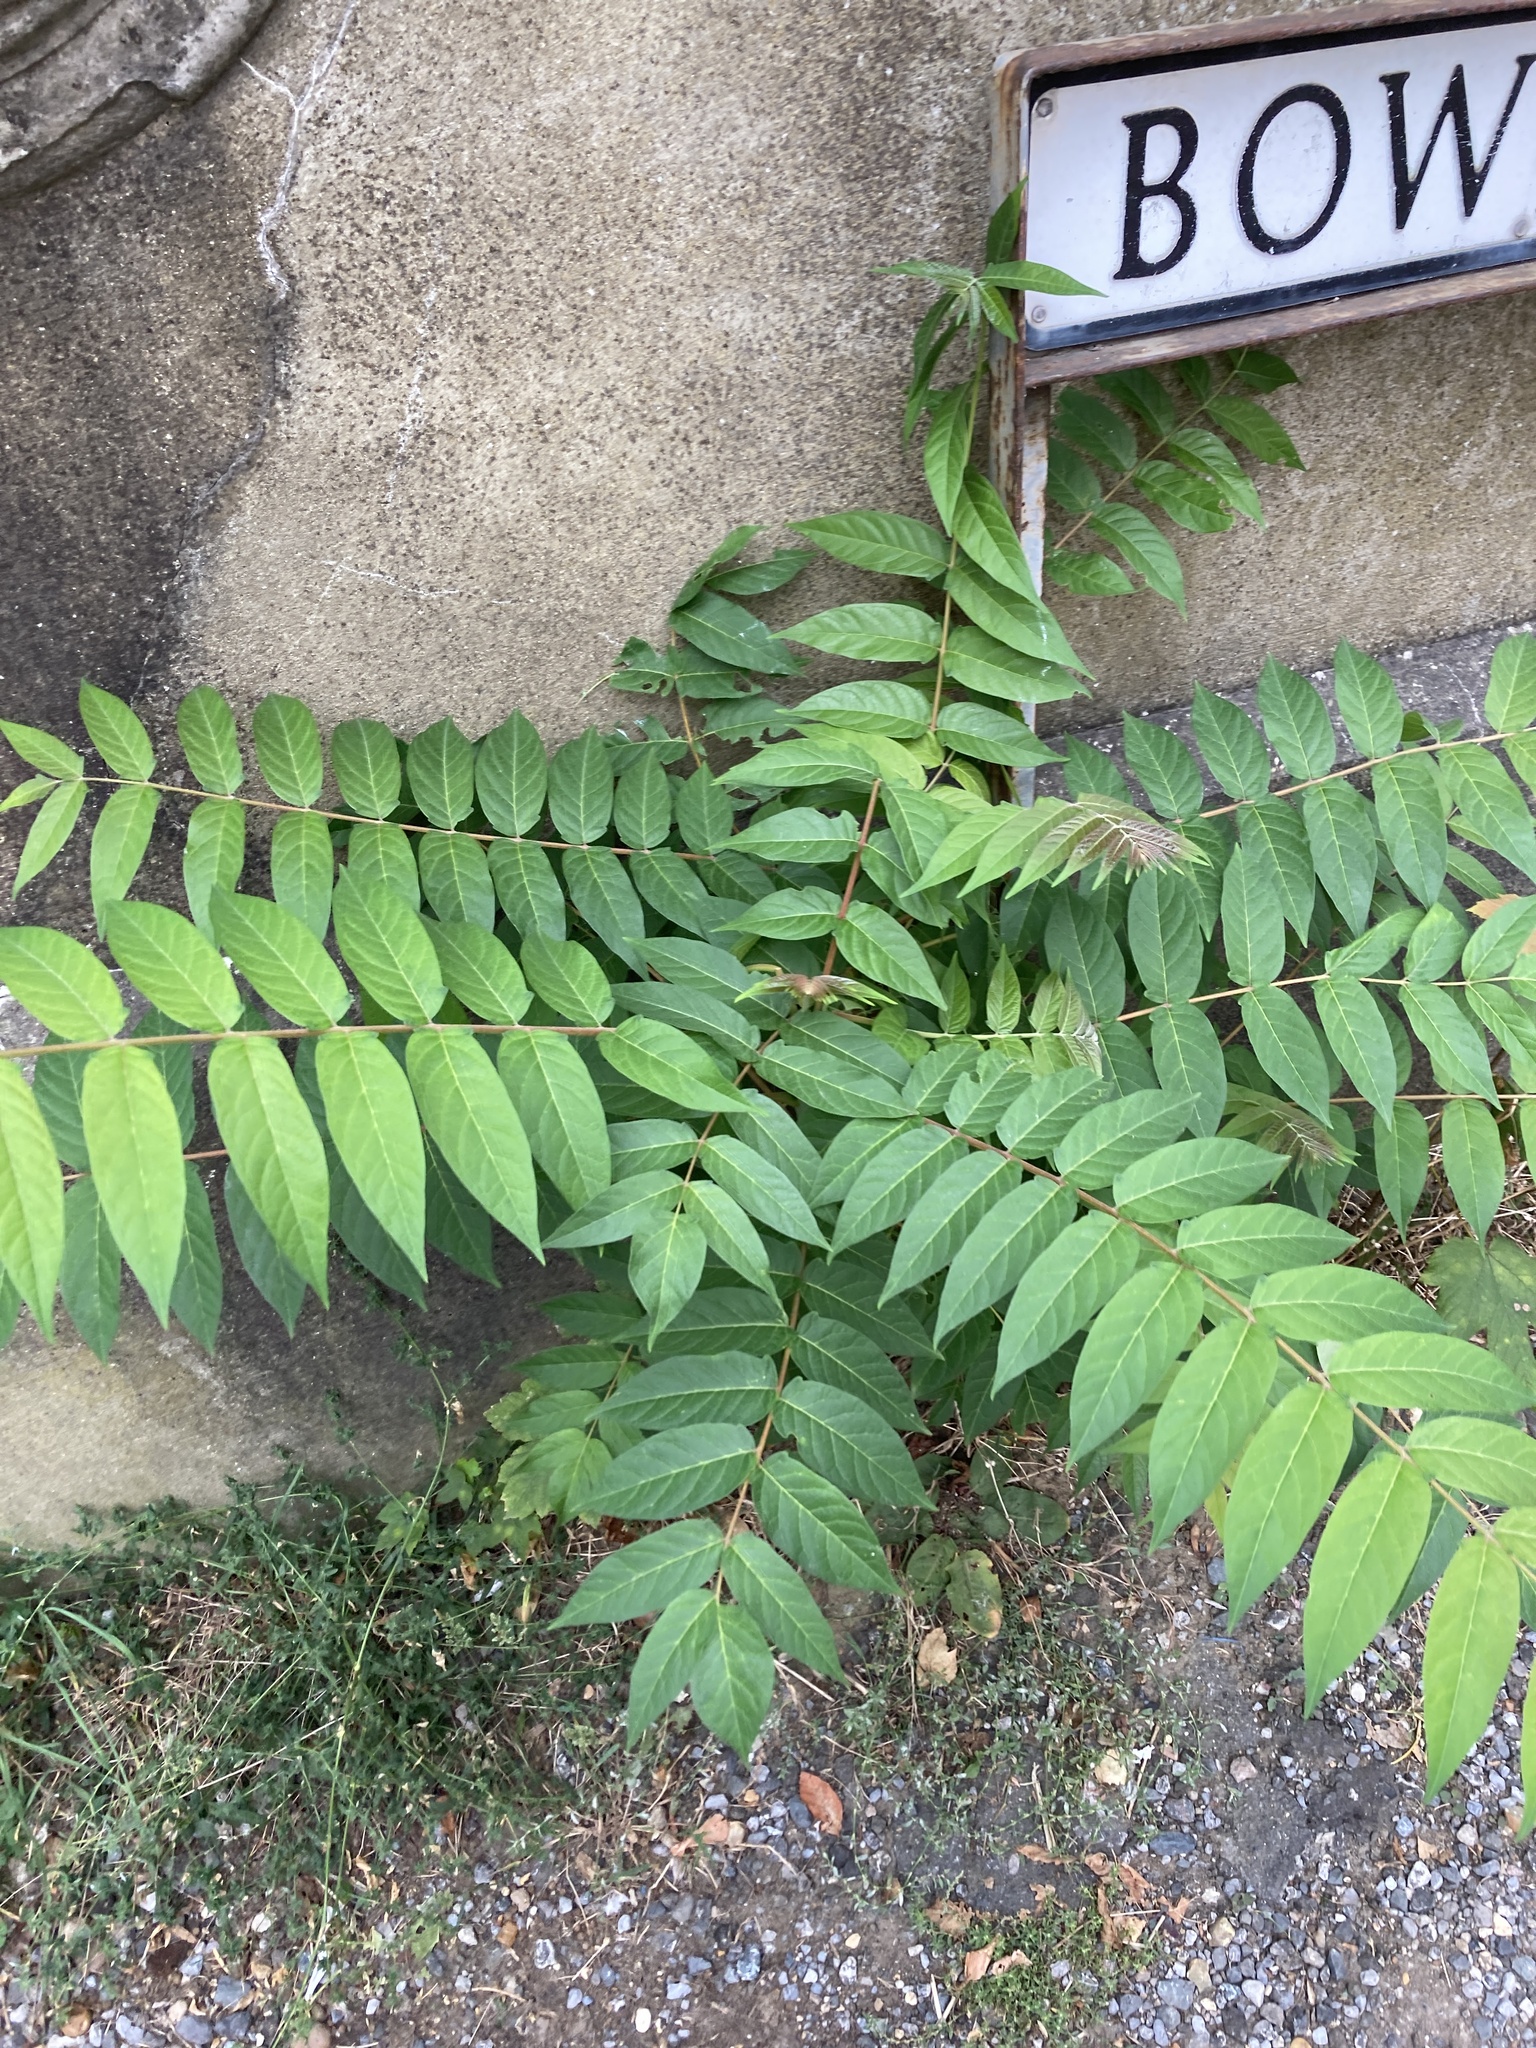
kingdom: Plantae
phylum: Tracheophyta
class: Magnoliopsida
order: Sapindales
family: Simaroubaceae
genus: Ailanthus
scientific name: Ailanthus altissima
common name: Tree-of-heaven
